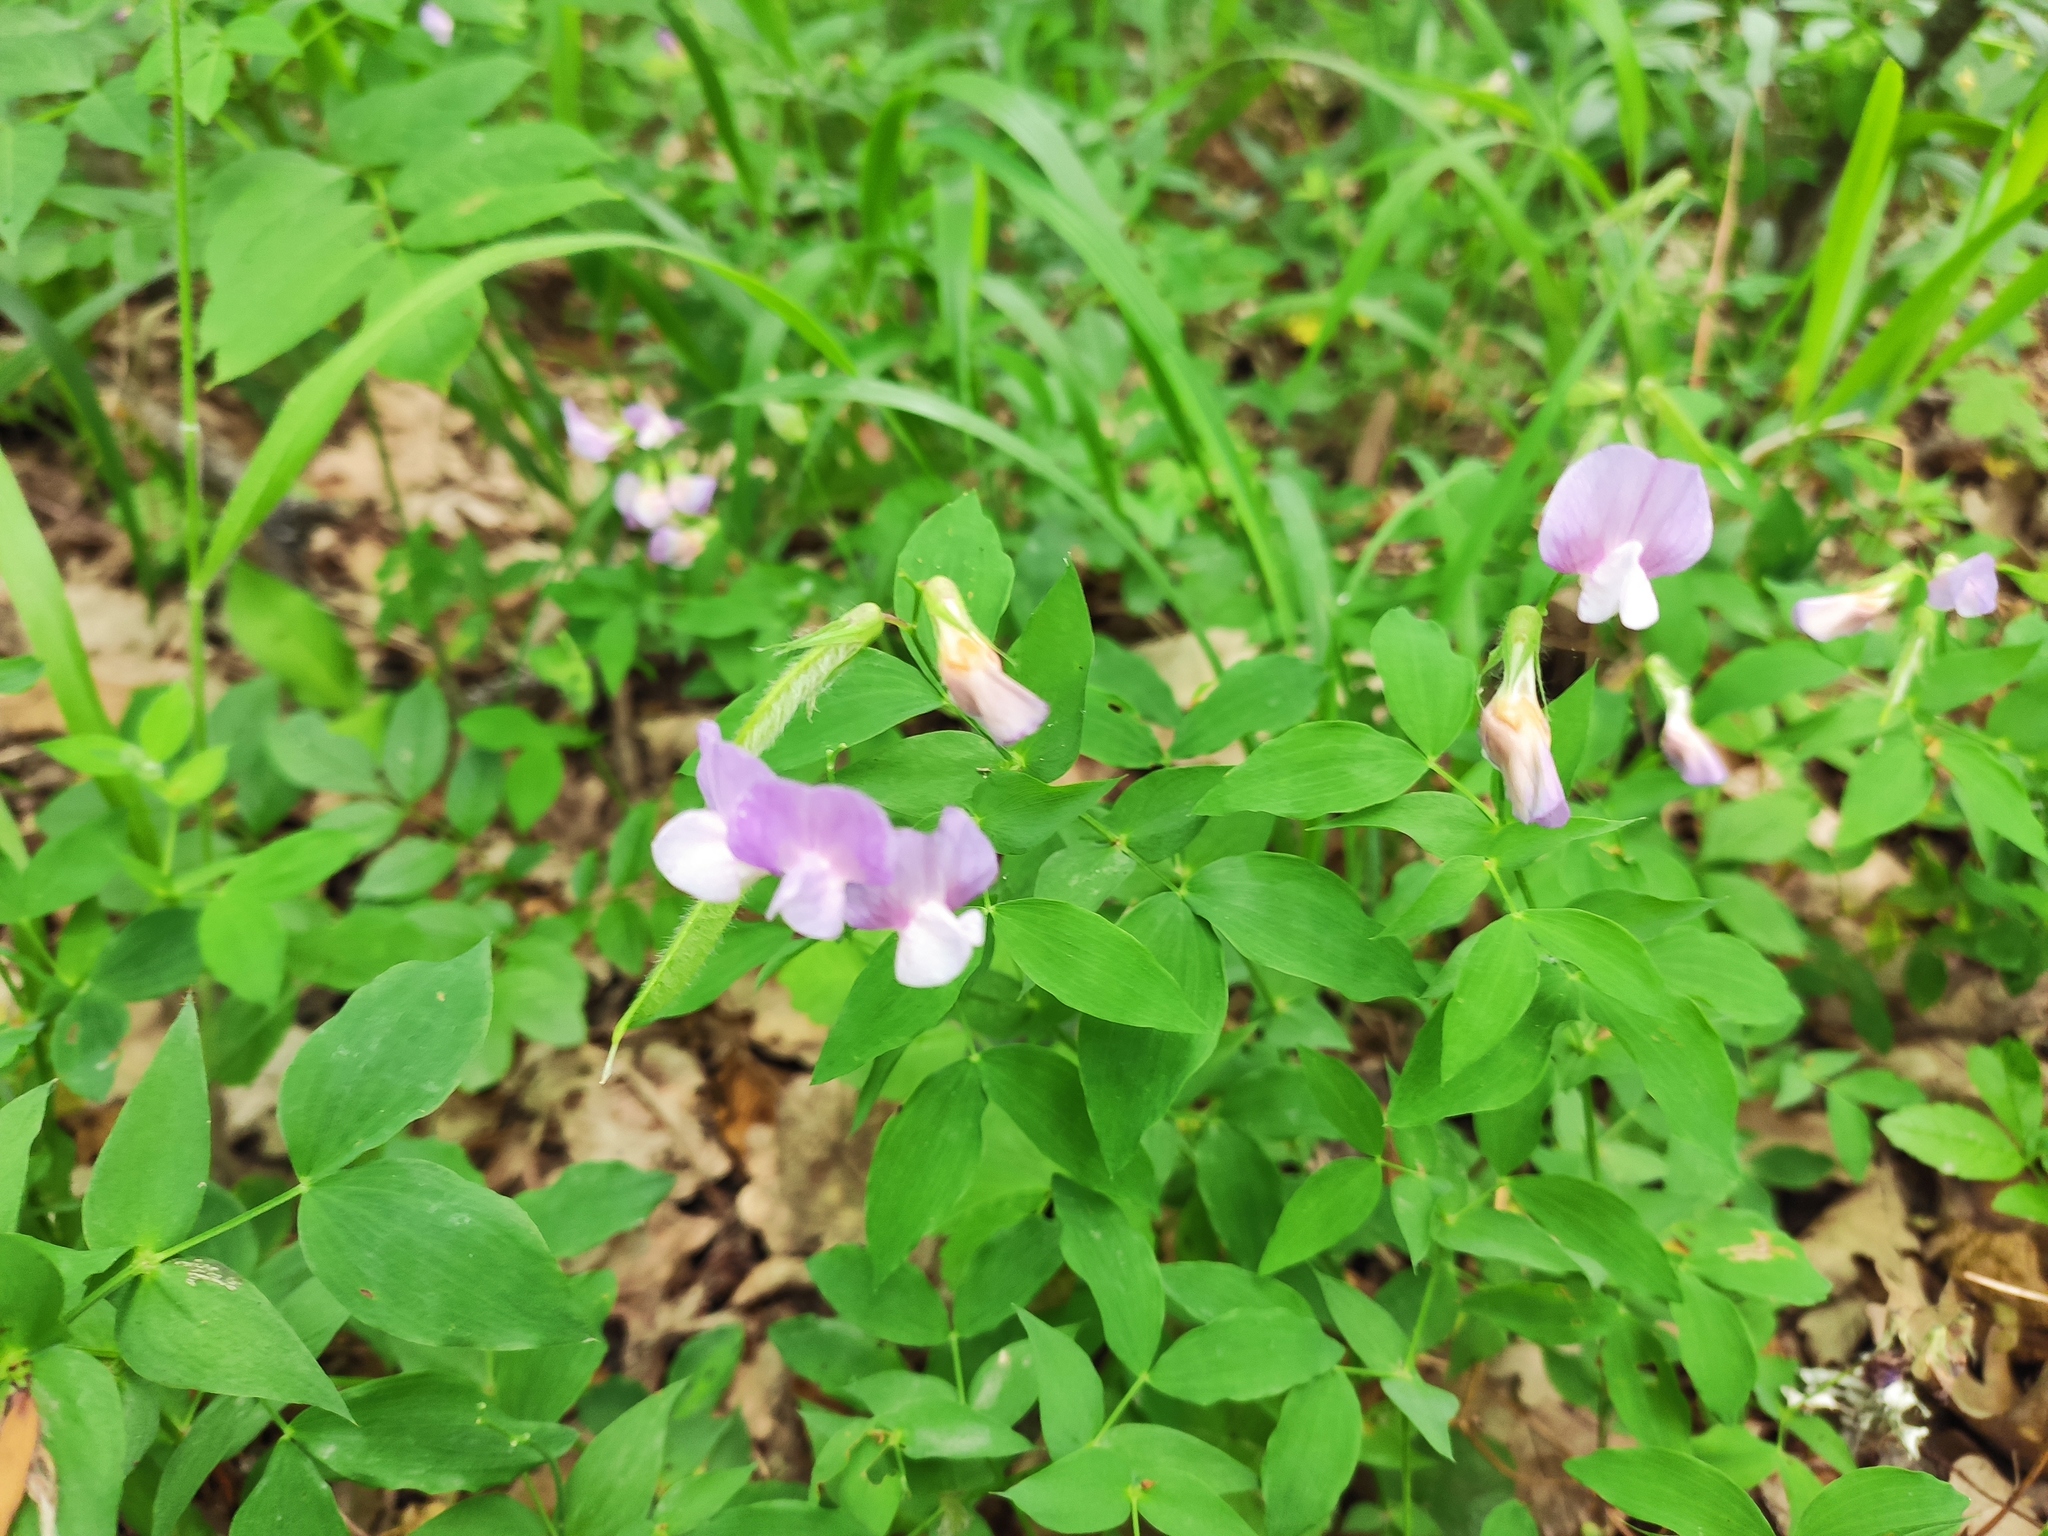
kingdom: Plantae
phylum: Tracheophyta
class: Magnoliopsida
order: Fabales
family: Fabaceae
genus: Lathyrus
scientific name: Lathyrus laxiflorus
